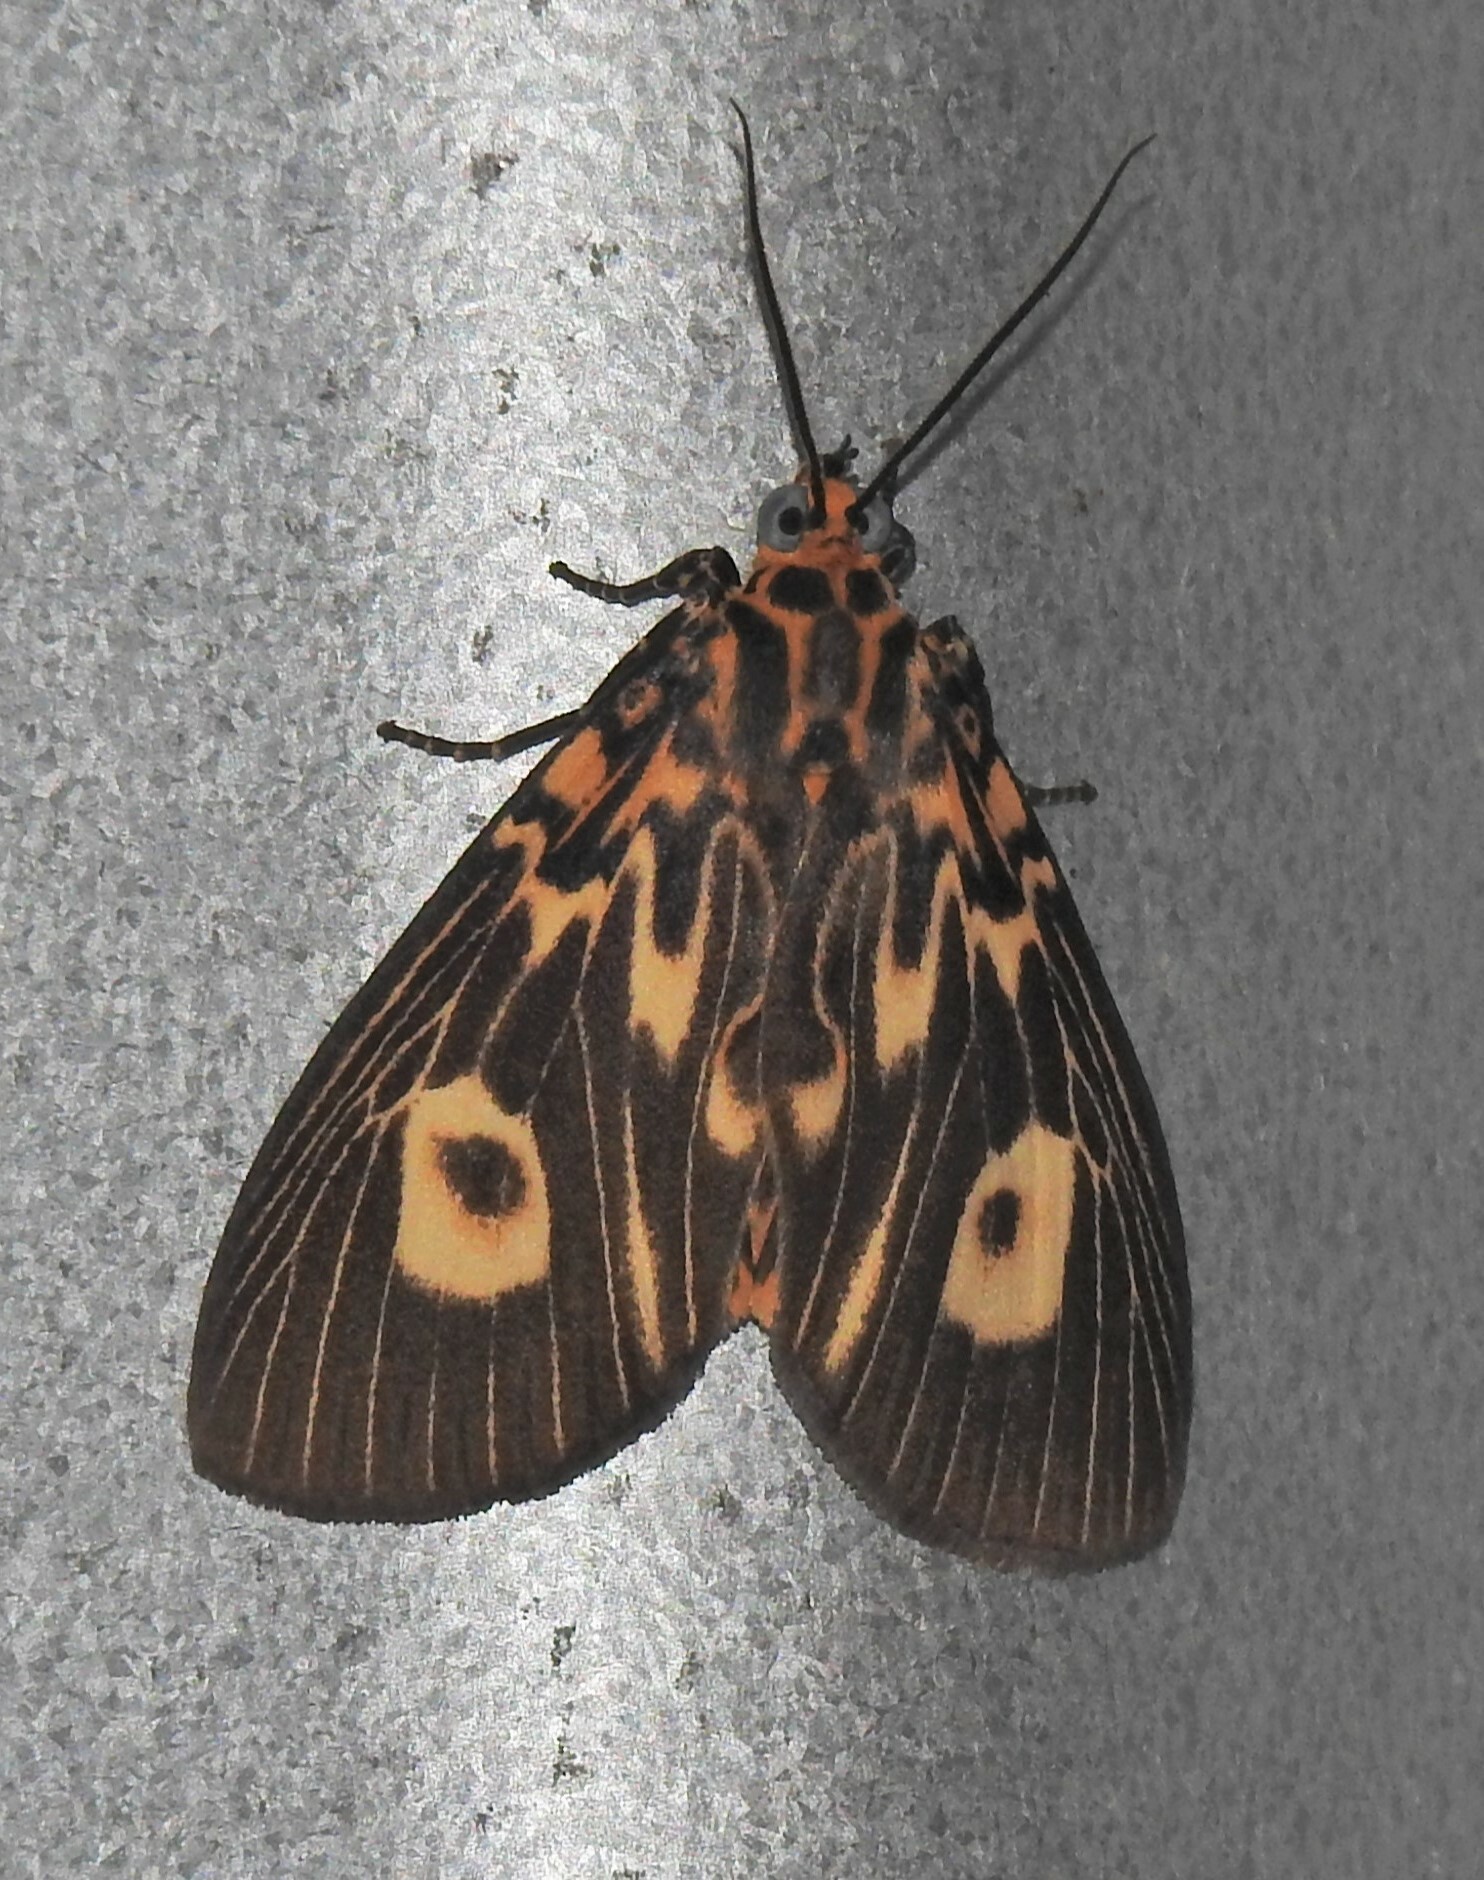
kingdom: Animalia
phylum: Arthropoda
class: Insecta
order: Lepidoptera
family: Erebidae
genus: Asota
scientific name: Asota plagiata
